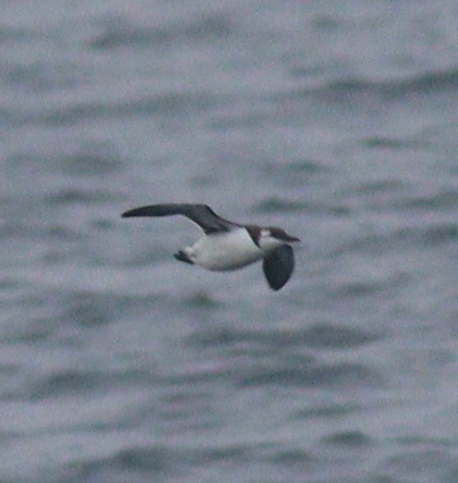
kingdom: Animalia
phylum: Chordata
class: Aves
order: Charadriiformes
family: Alcidae
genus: Uria
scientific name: Uria aalge
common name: Common murre
